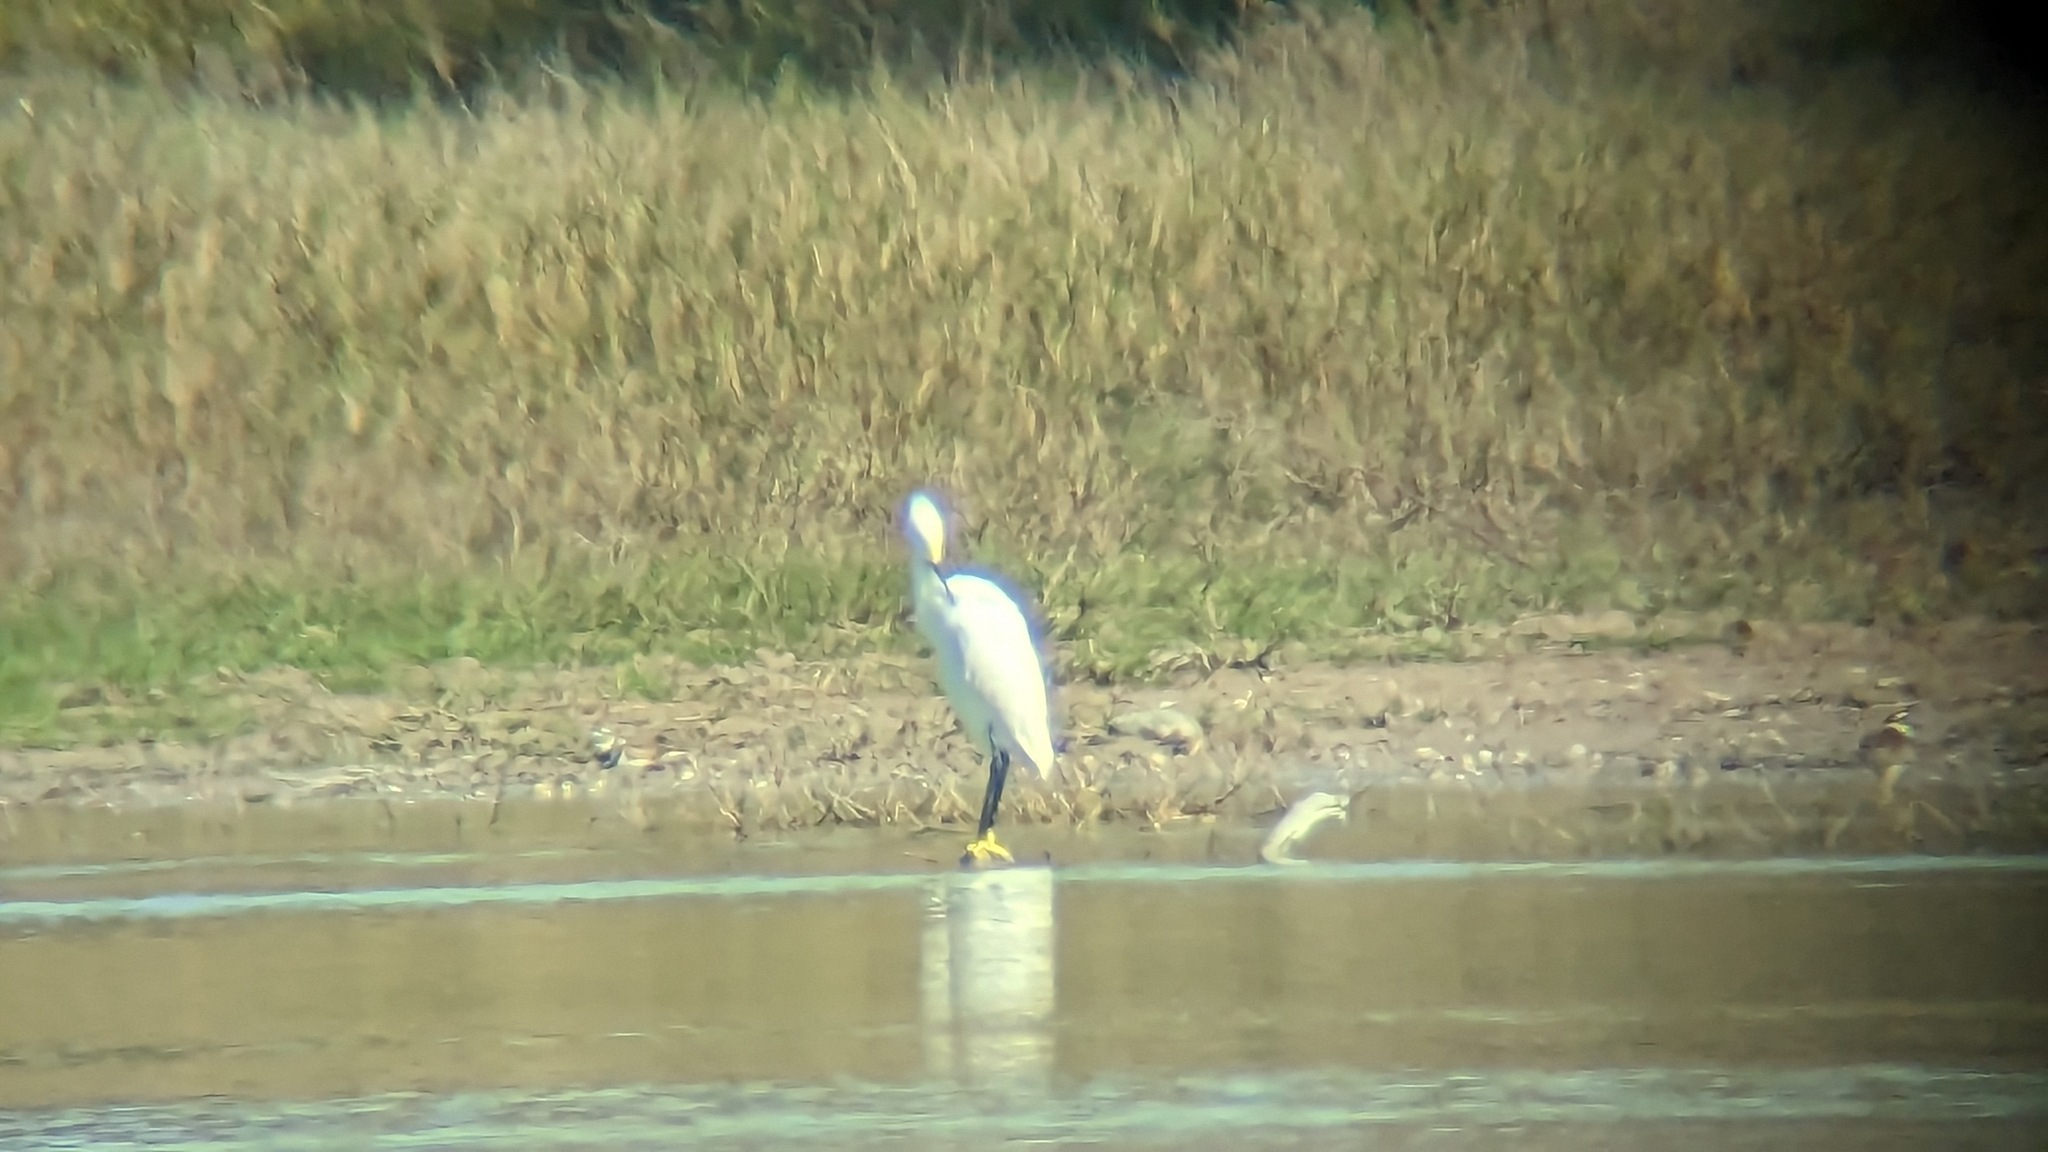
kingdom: Animalia
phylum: Chordata
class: Aves
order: Pelecaniformes
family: Ardeidae
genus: Egretta
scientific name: Egretta thula
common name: Snowy egret
